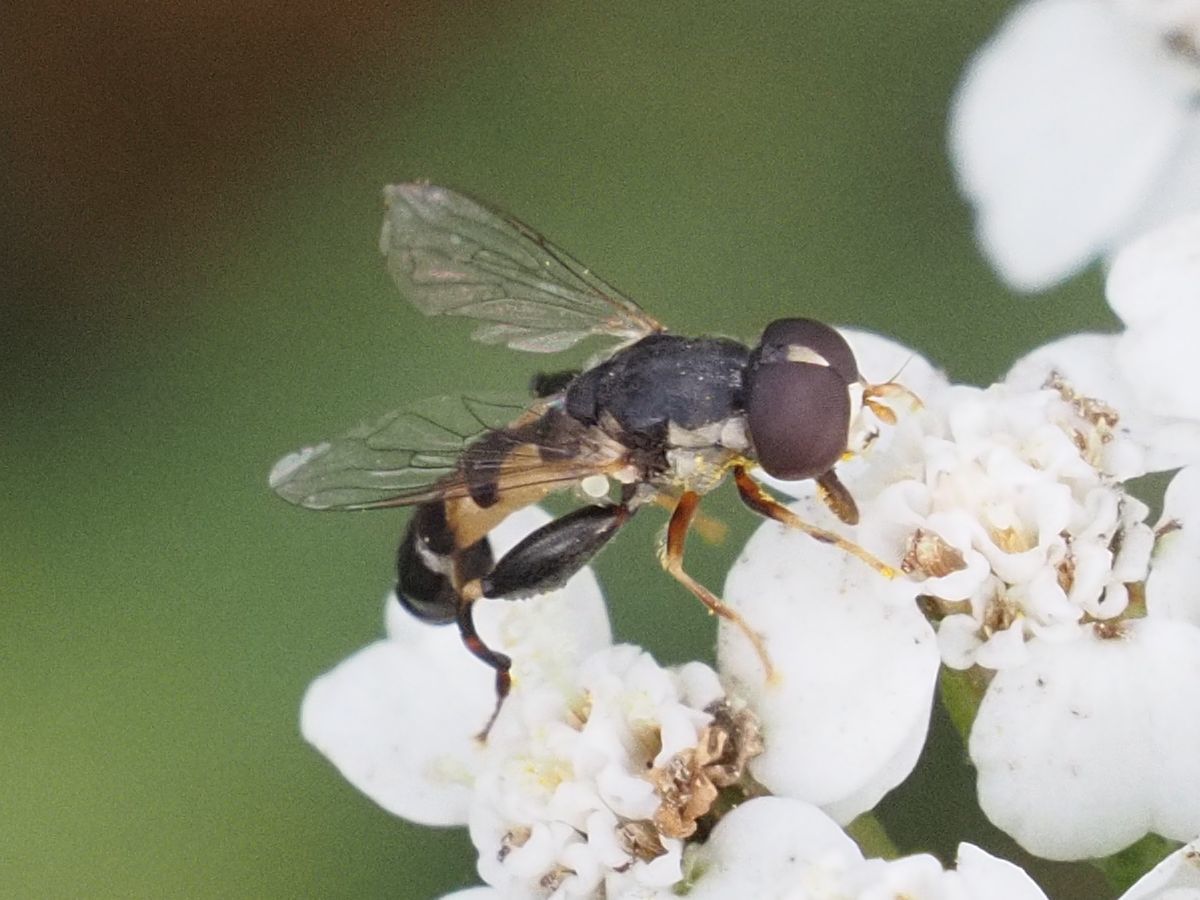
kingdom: Animalia
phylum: Arthropoda
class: Insecta
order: Diptera
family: Syrphidae
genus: Syritta
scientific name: Syritta pipiens
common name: Hover fly
